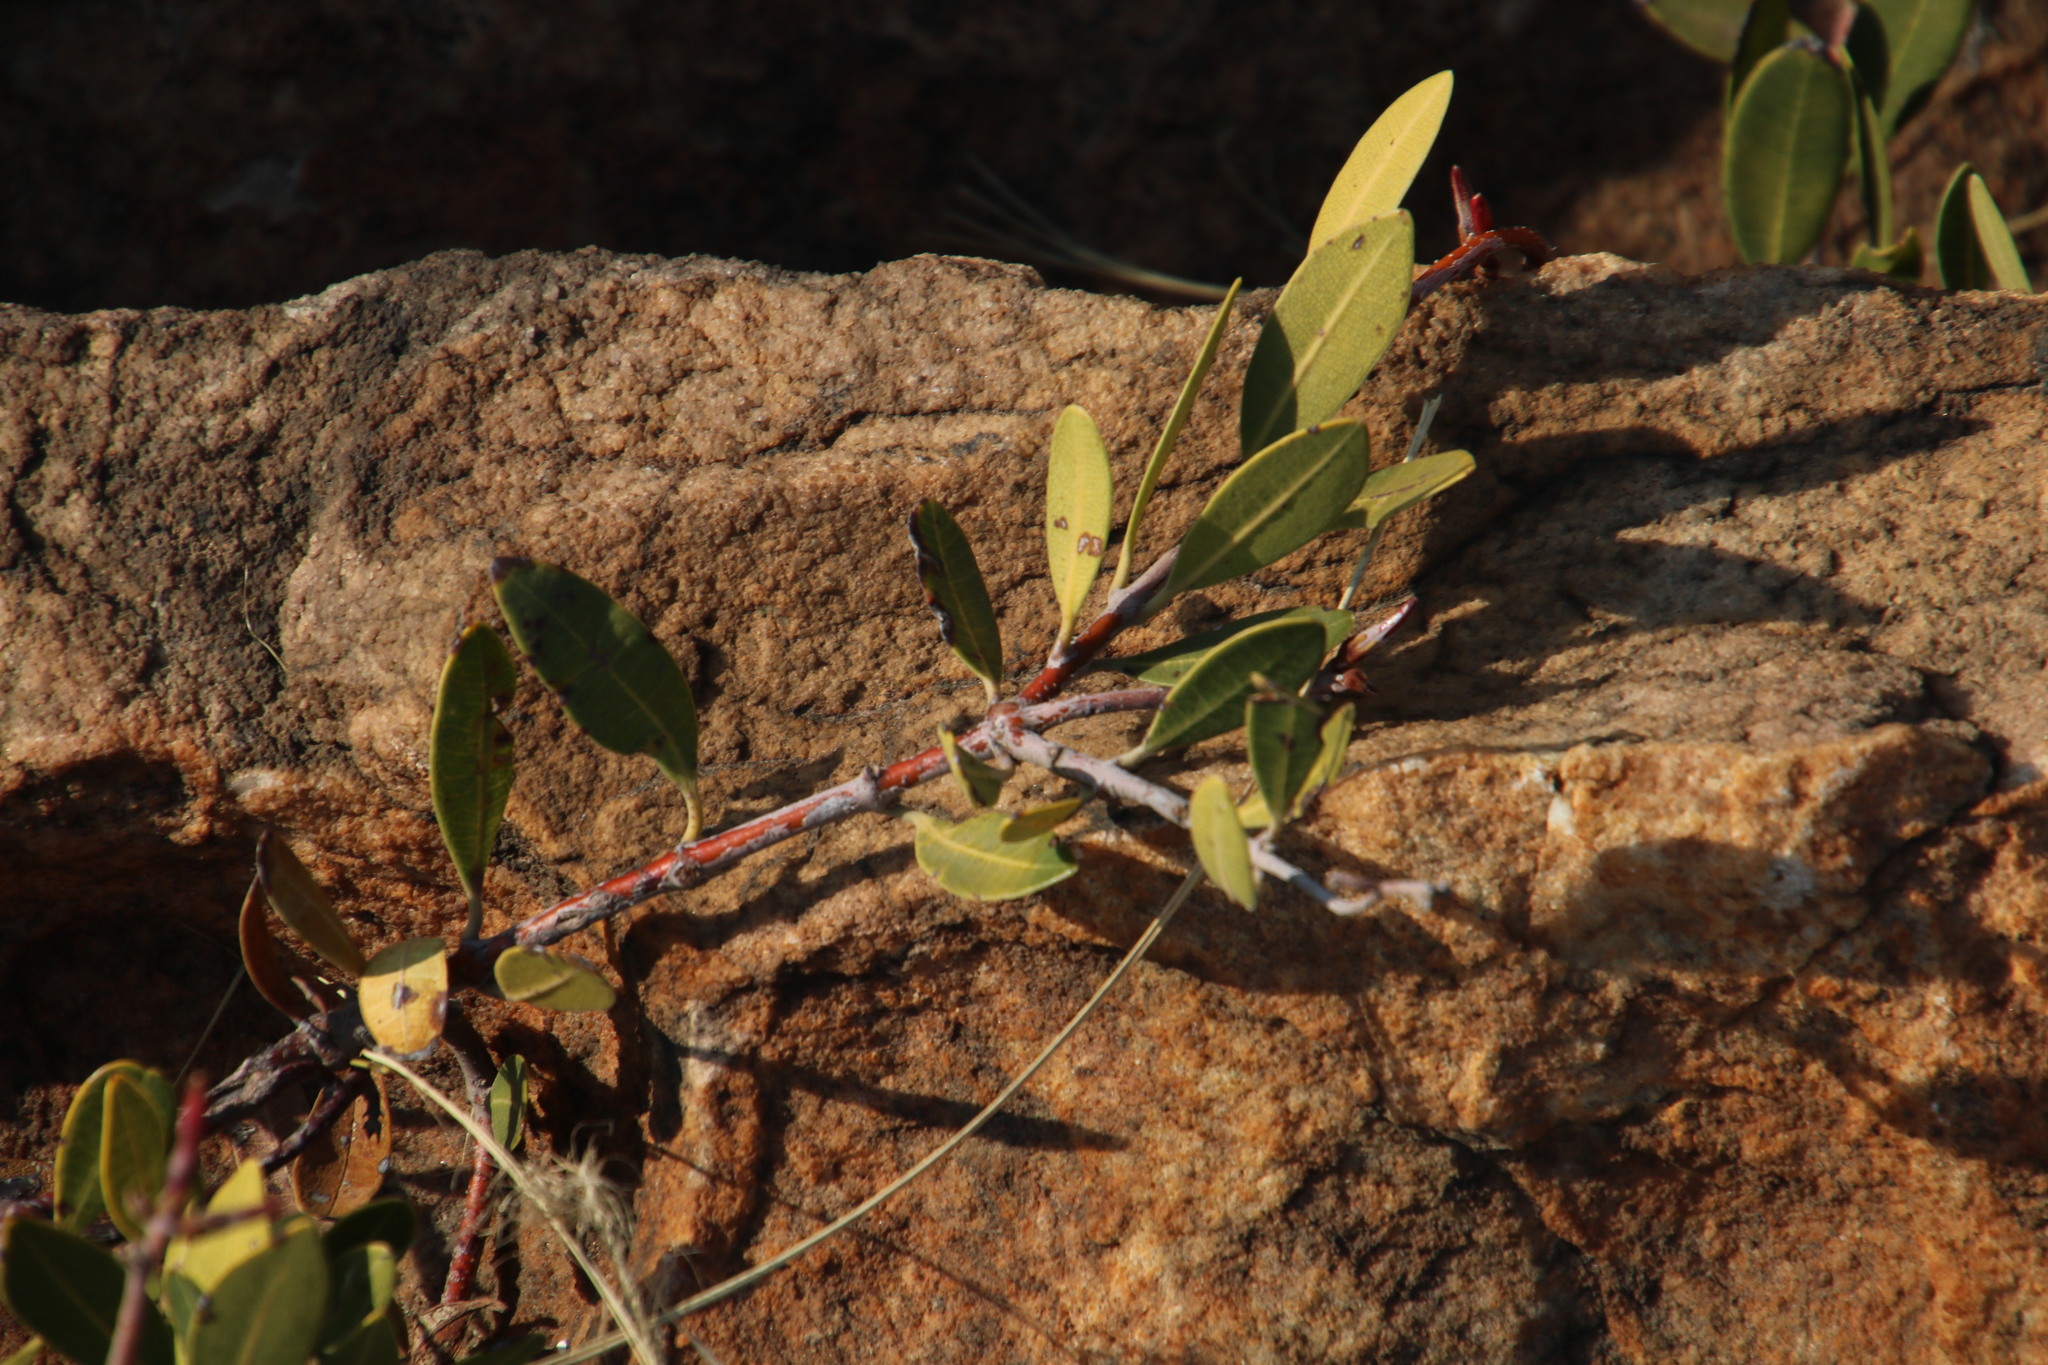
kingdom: Plantae
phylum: Tracheophyta
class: Magnoliopsida
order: Gentianales
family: Apocynaceae
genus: Ancylobothrys
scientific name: Ancylobothrys capensis
